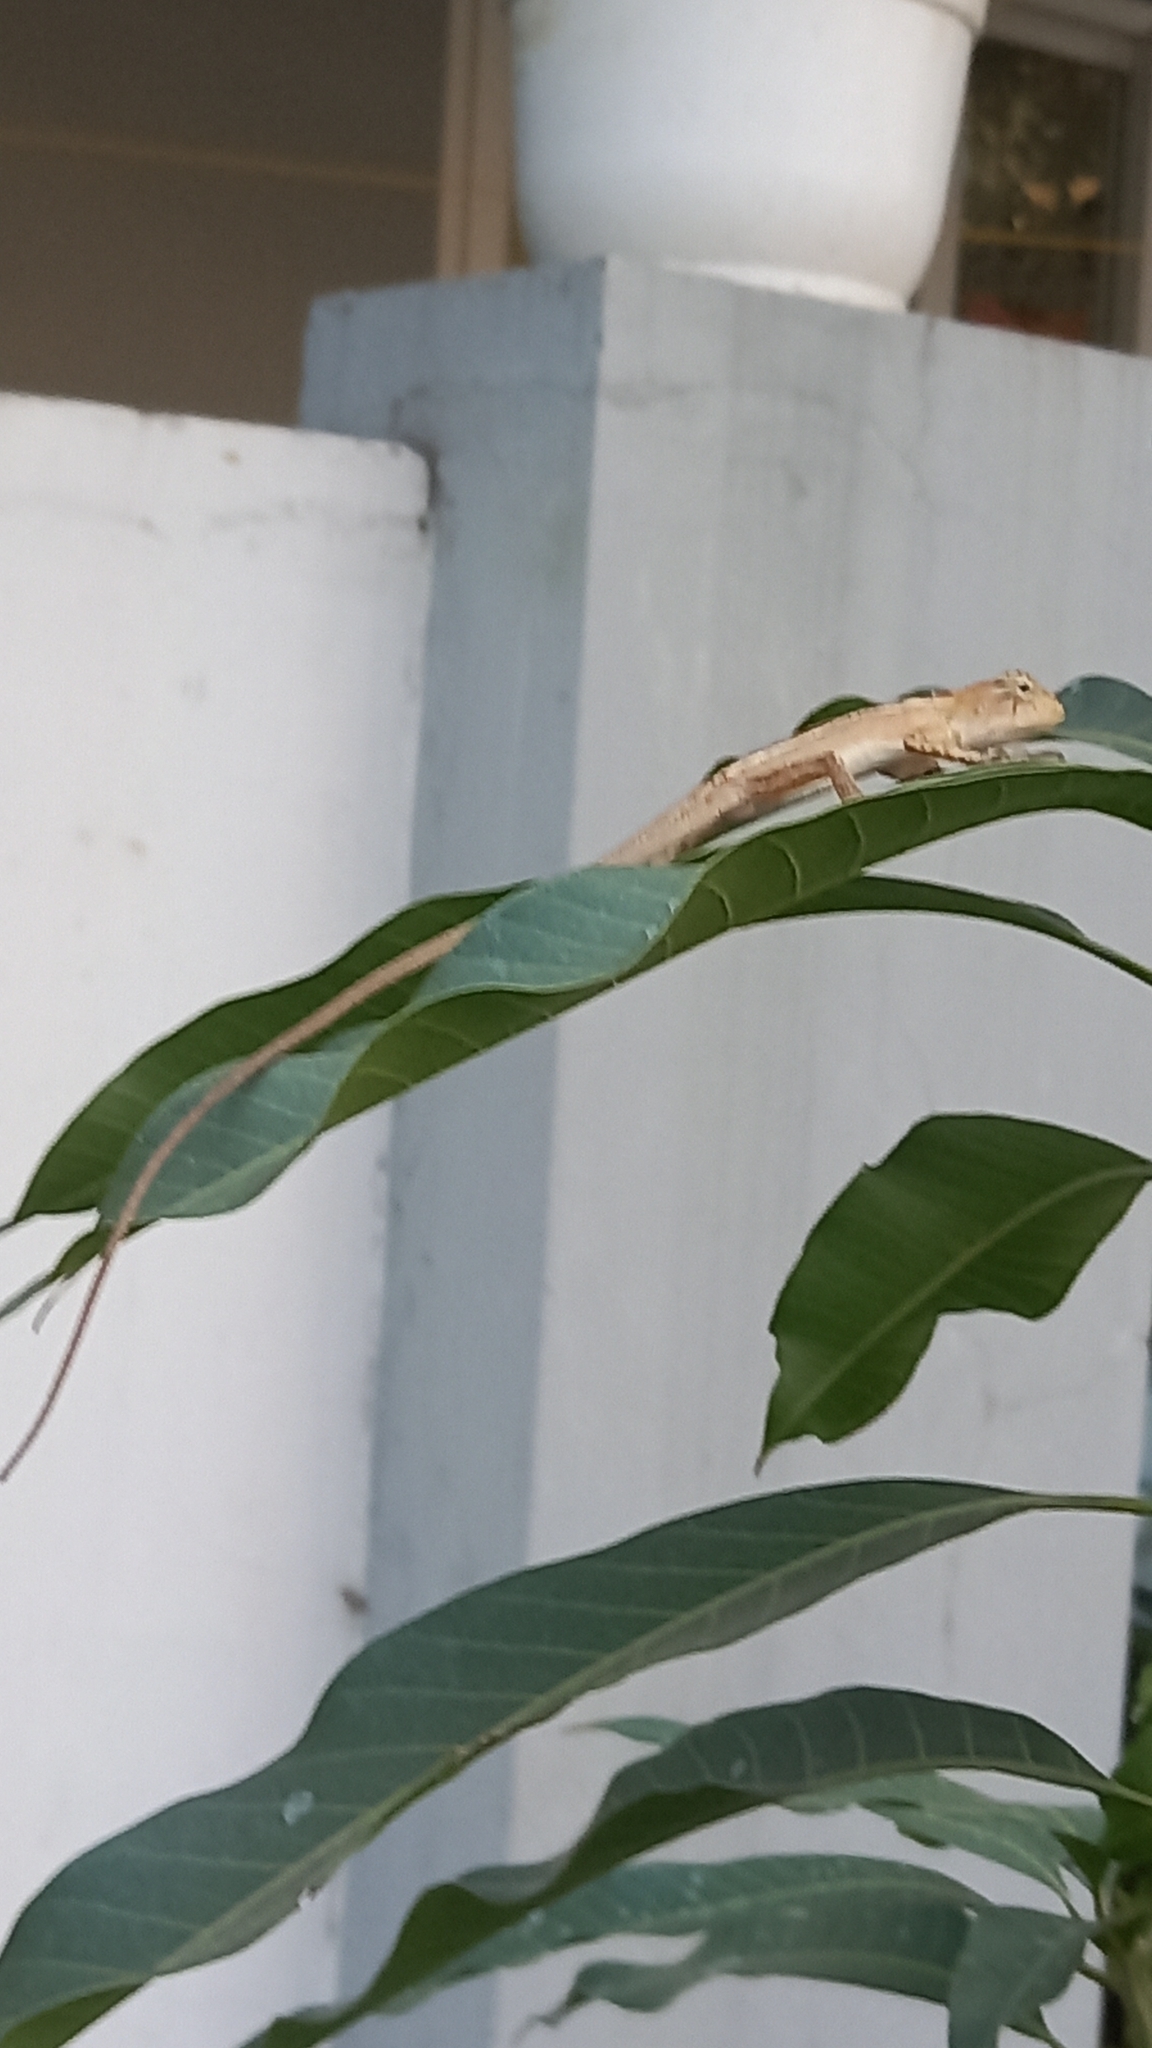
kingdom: Animalia
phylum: Chordata
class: Squamata
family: Agamidae
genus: Calotes
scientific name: Calotes versicolor
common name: Oriental garden lizard
